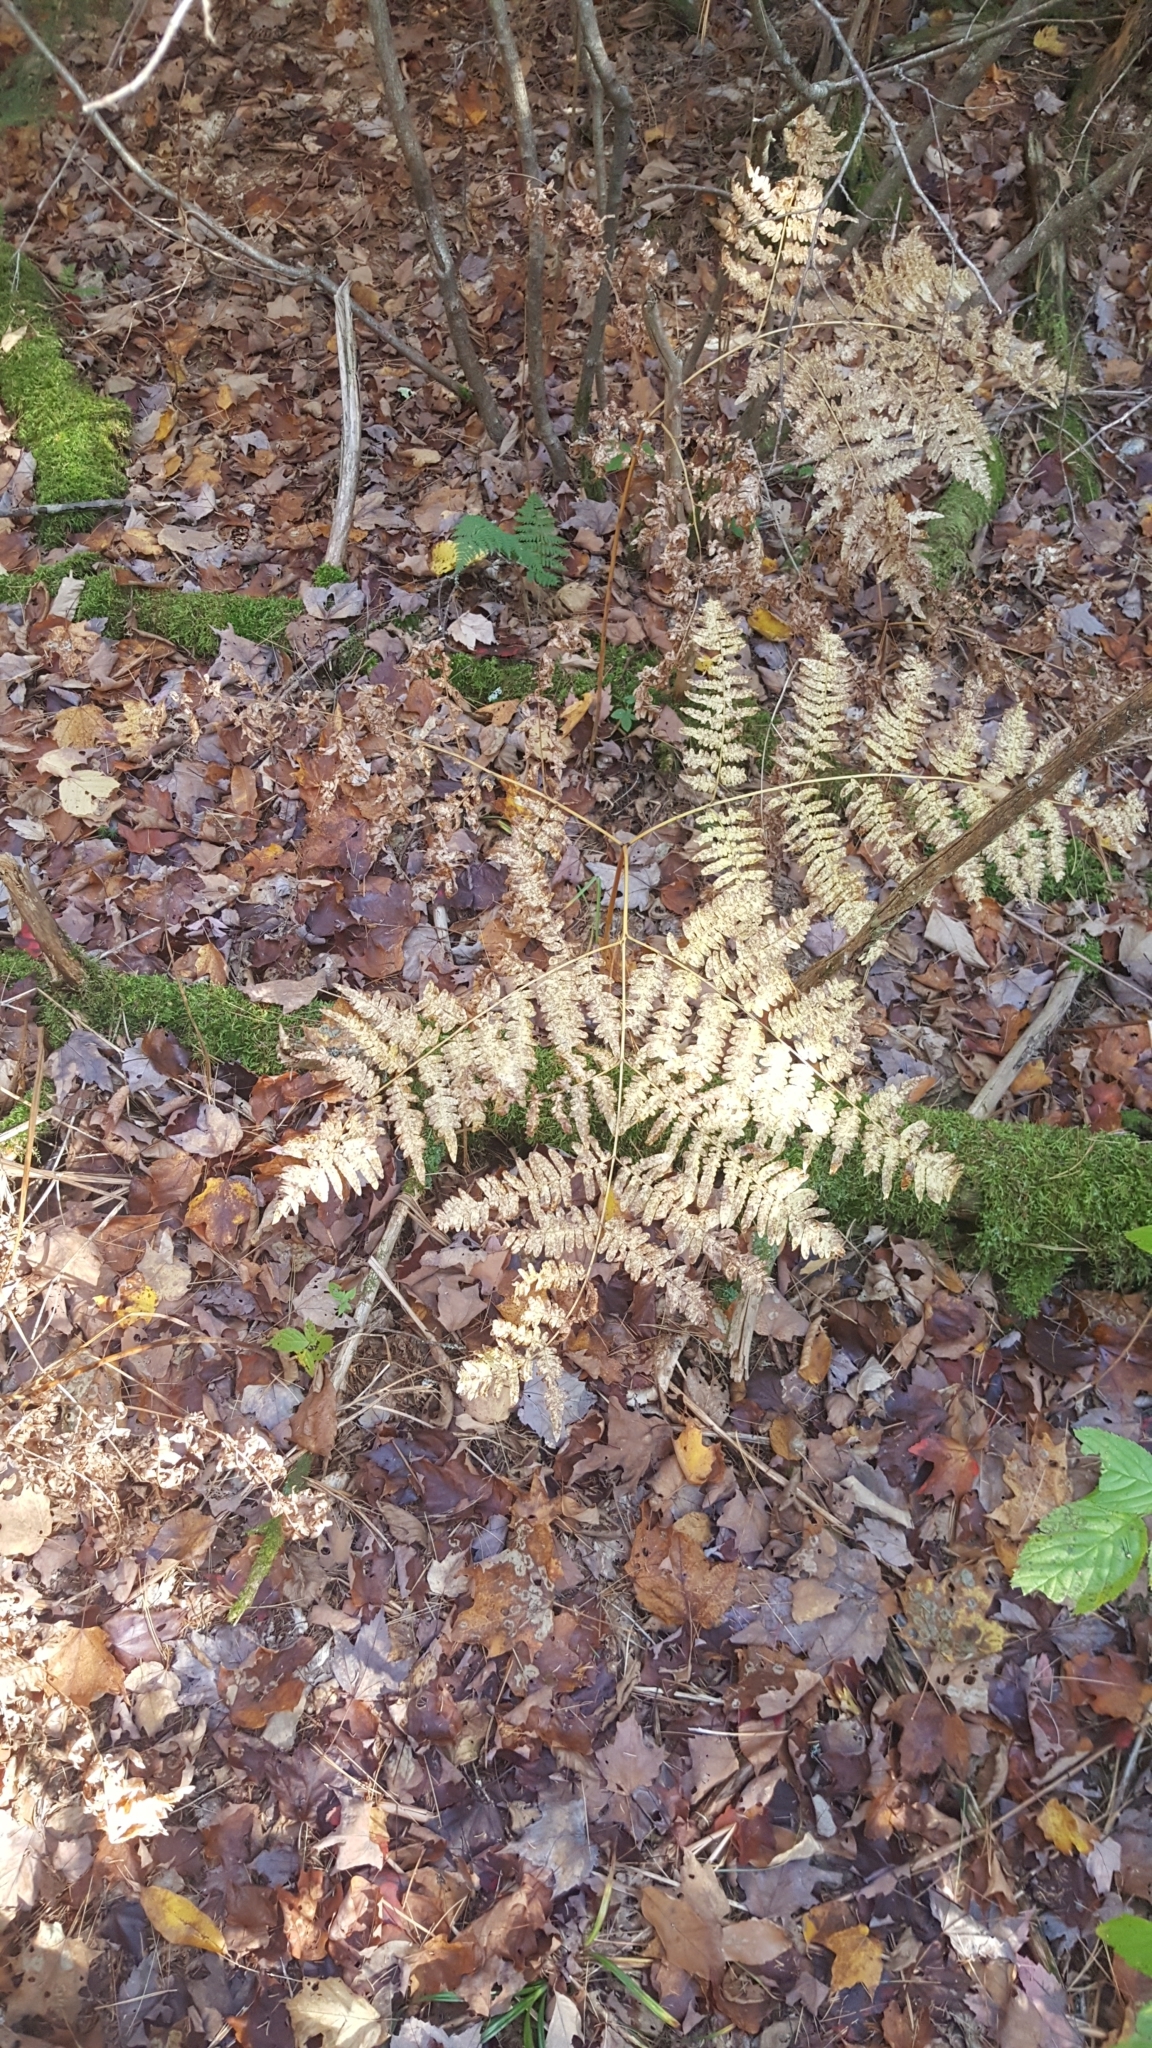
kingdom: Plantae
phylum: Tracheophyta
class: Polypodiopsida
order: Polypodiales
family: Dennstaedtiaceae
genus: Pteridium
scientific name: Pteridium aquilinum
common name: Bracken
